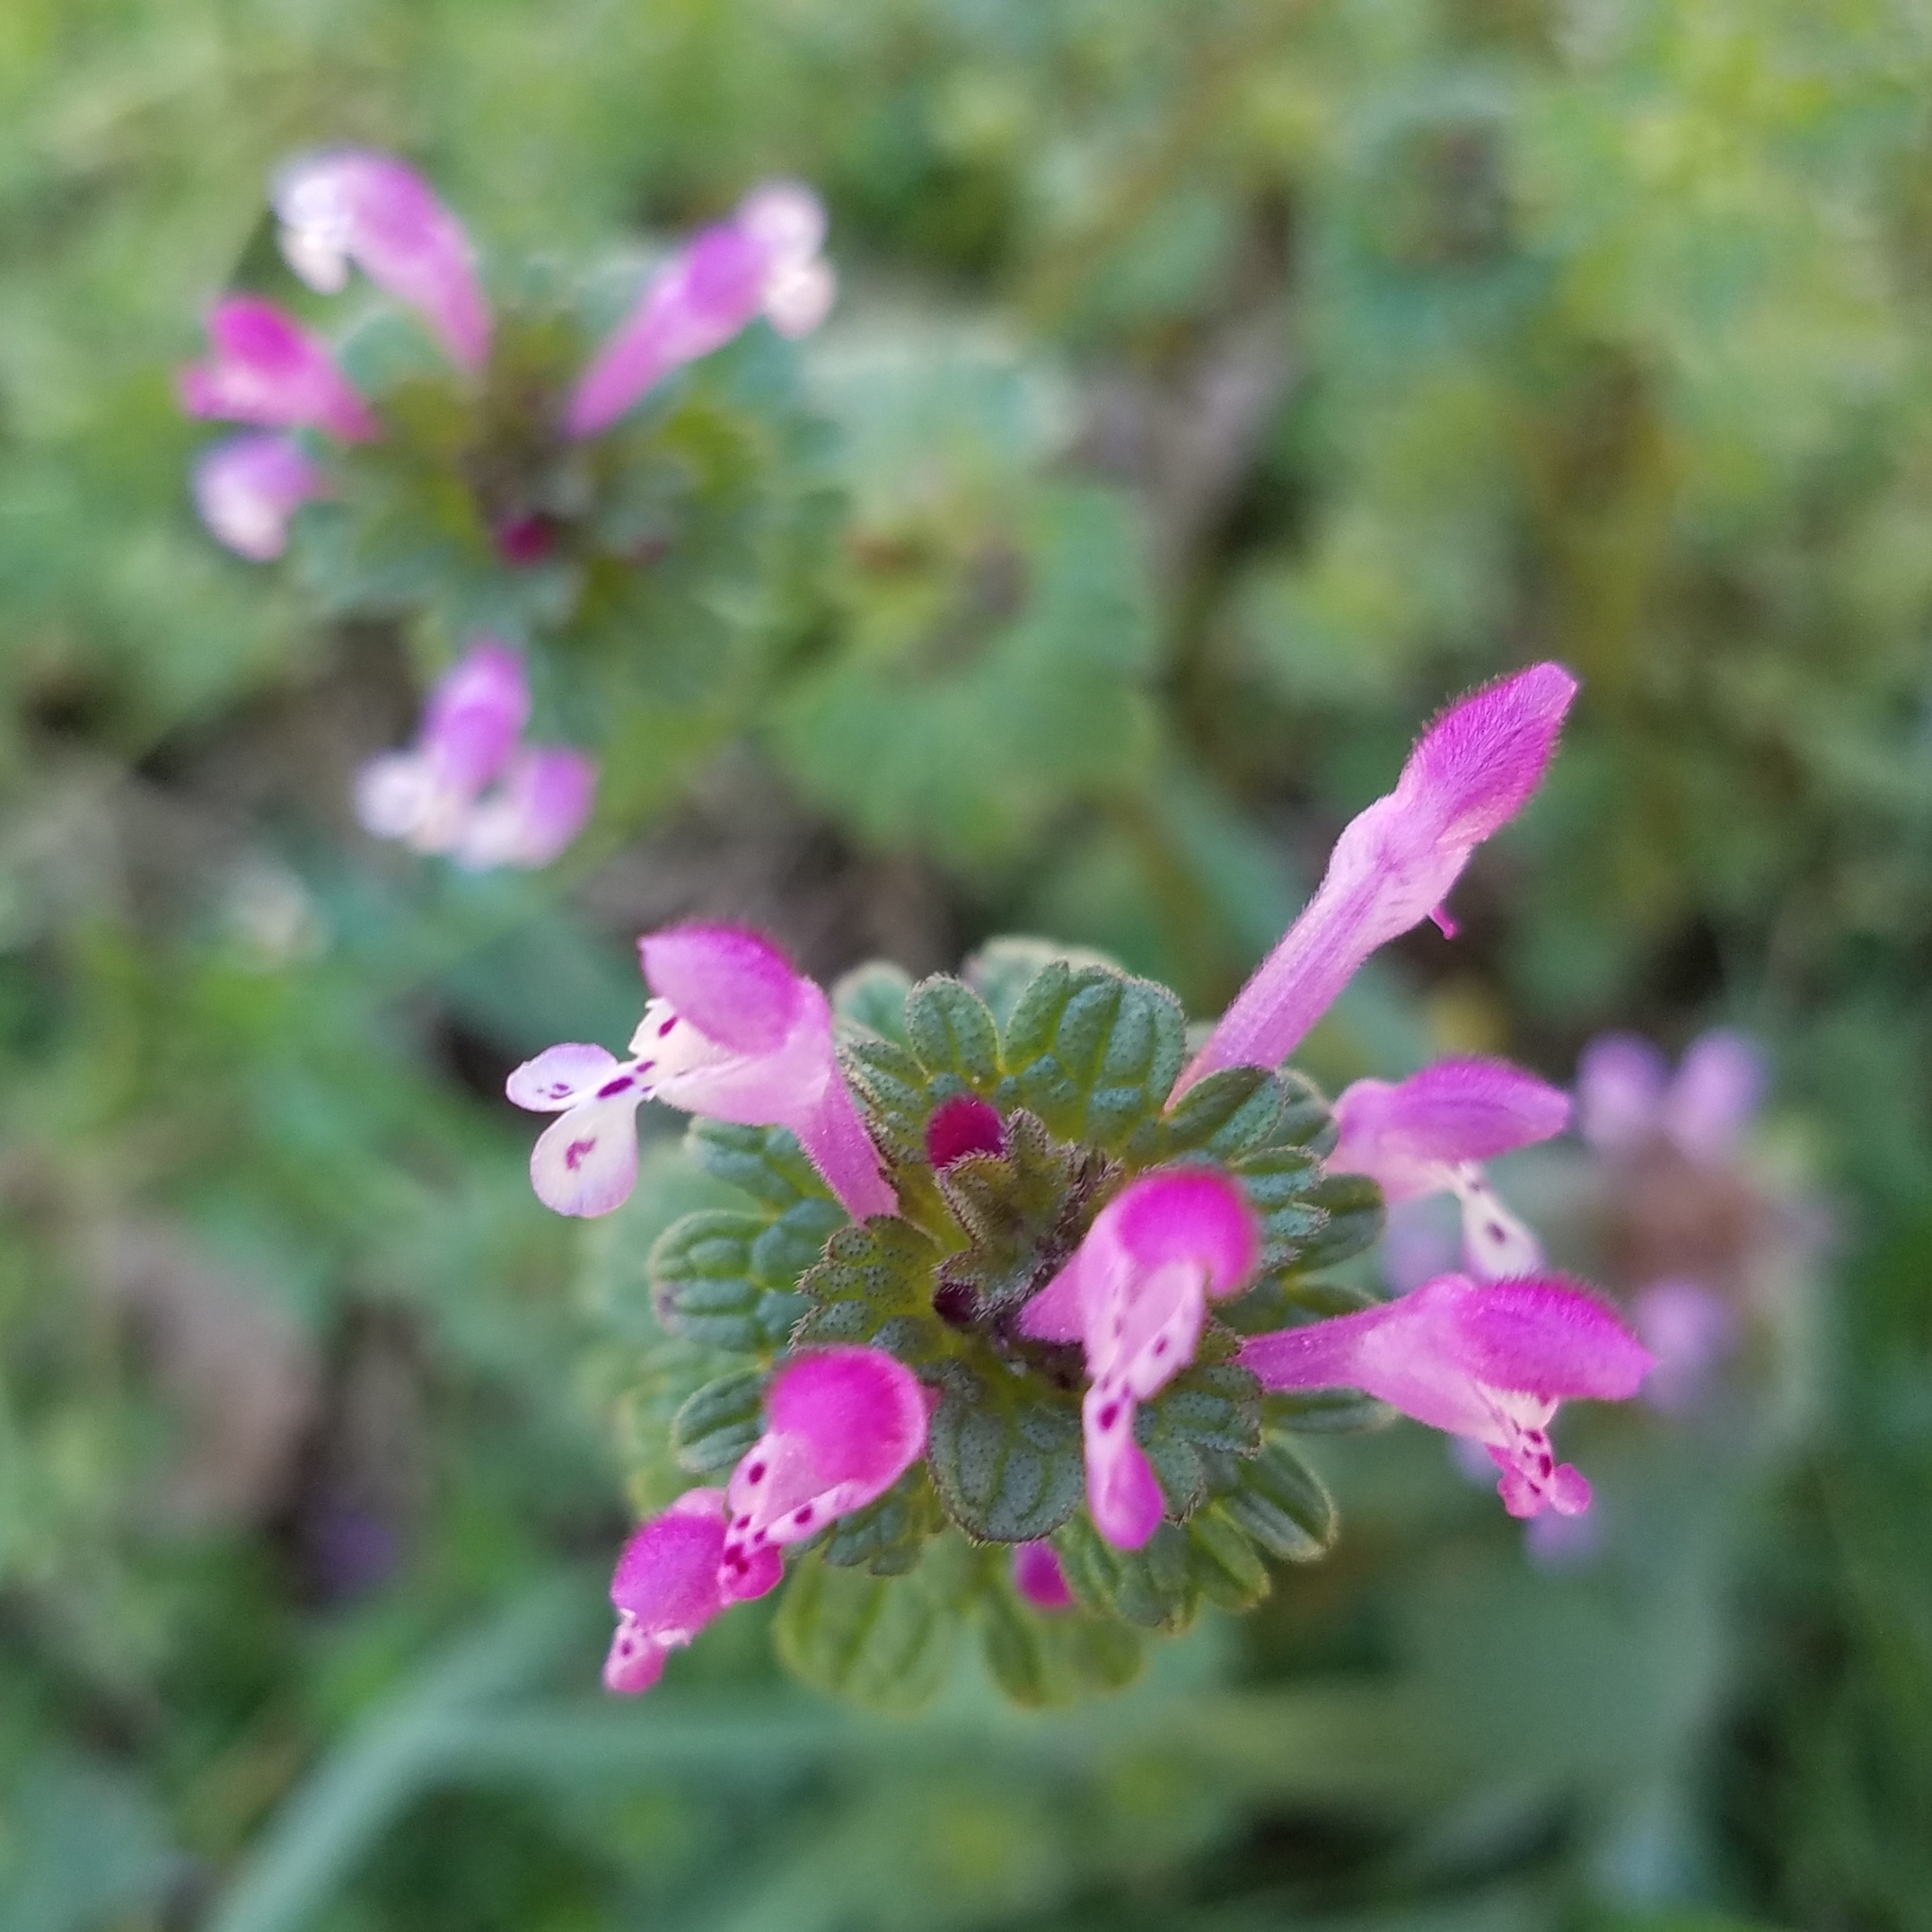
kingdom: Plantae
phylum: Tracheophyta
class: Magnoliopsida
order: Lamiales
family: Lamiaceae
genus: Lamium
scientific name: Lamium amplexicaule
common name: Henbit dead-nettle
